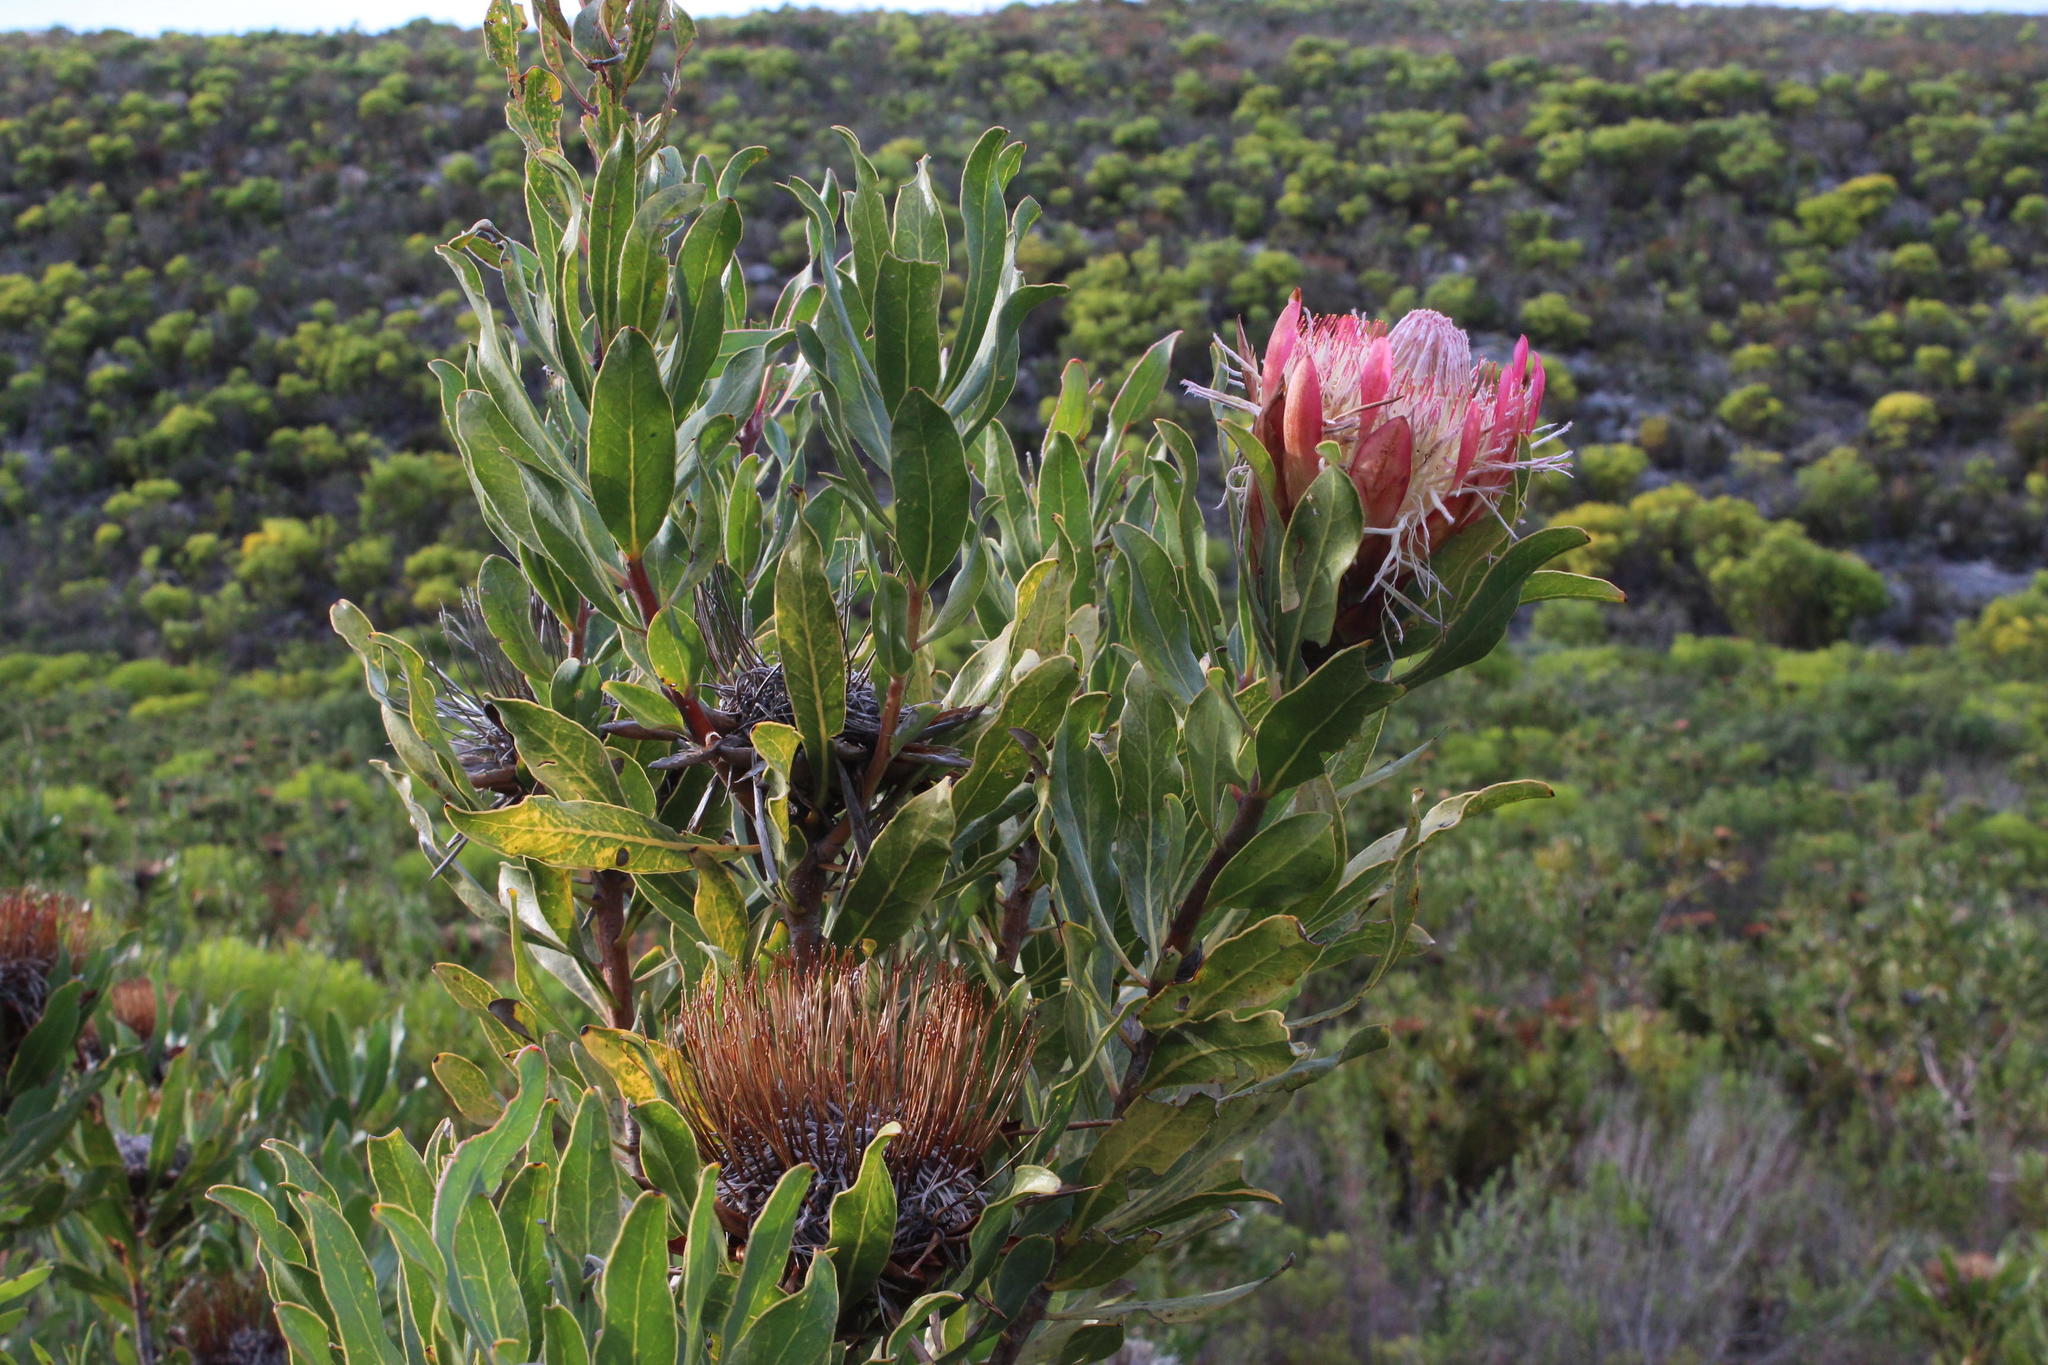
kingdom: Plantae
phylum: Tracheophyta
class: Magnoliopsida
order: Proteales
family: Proteaceae
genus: Protea
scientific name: Protea susannae
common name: Foetid-leaf sugarbush
